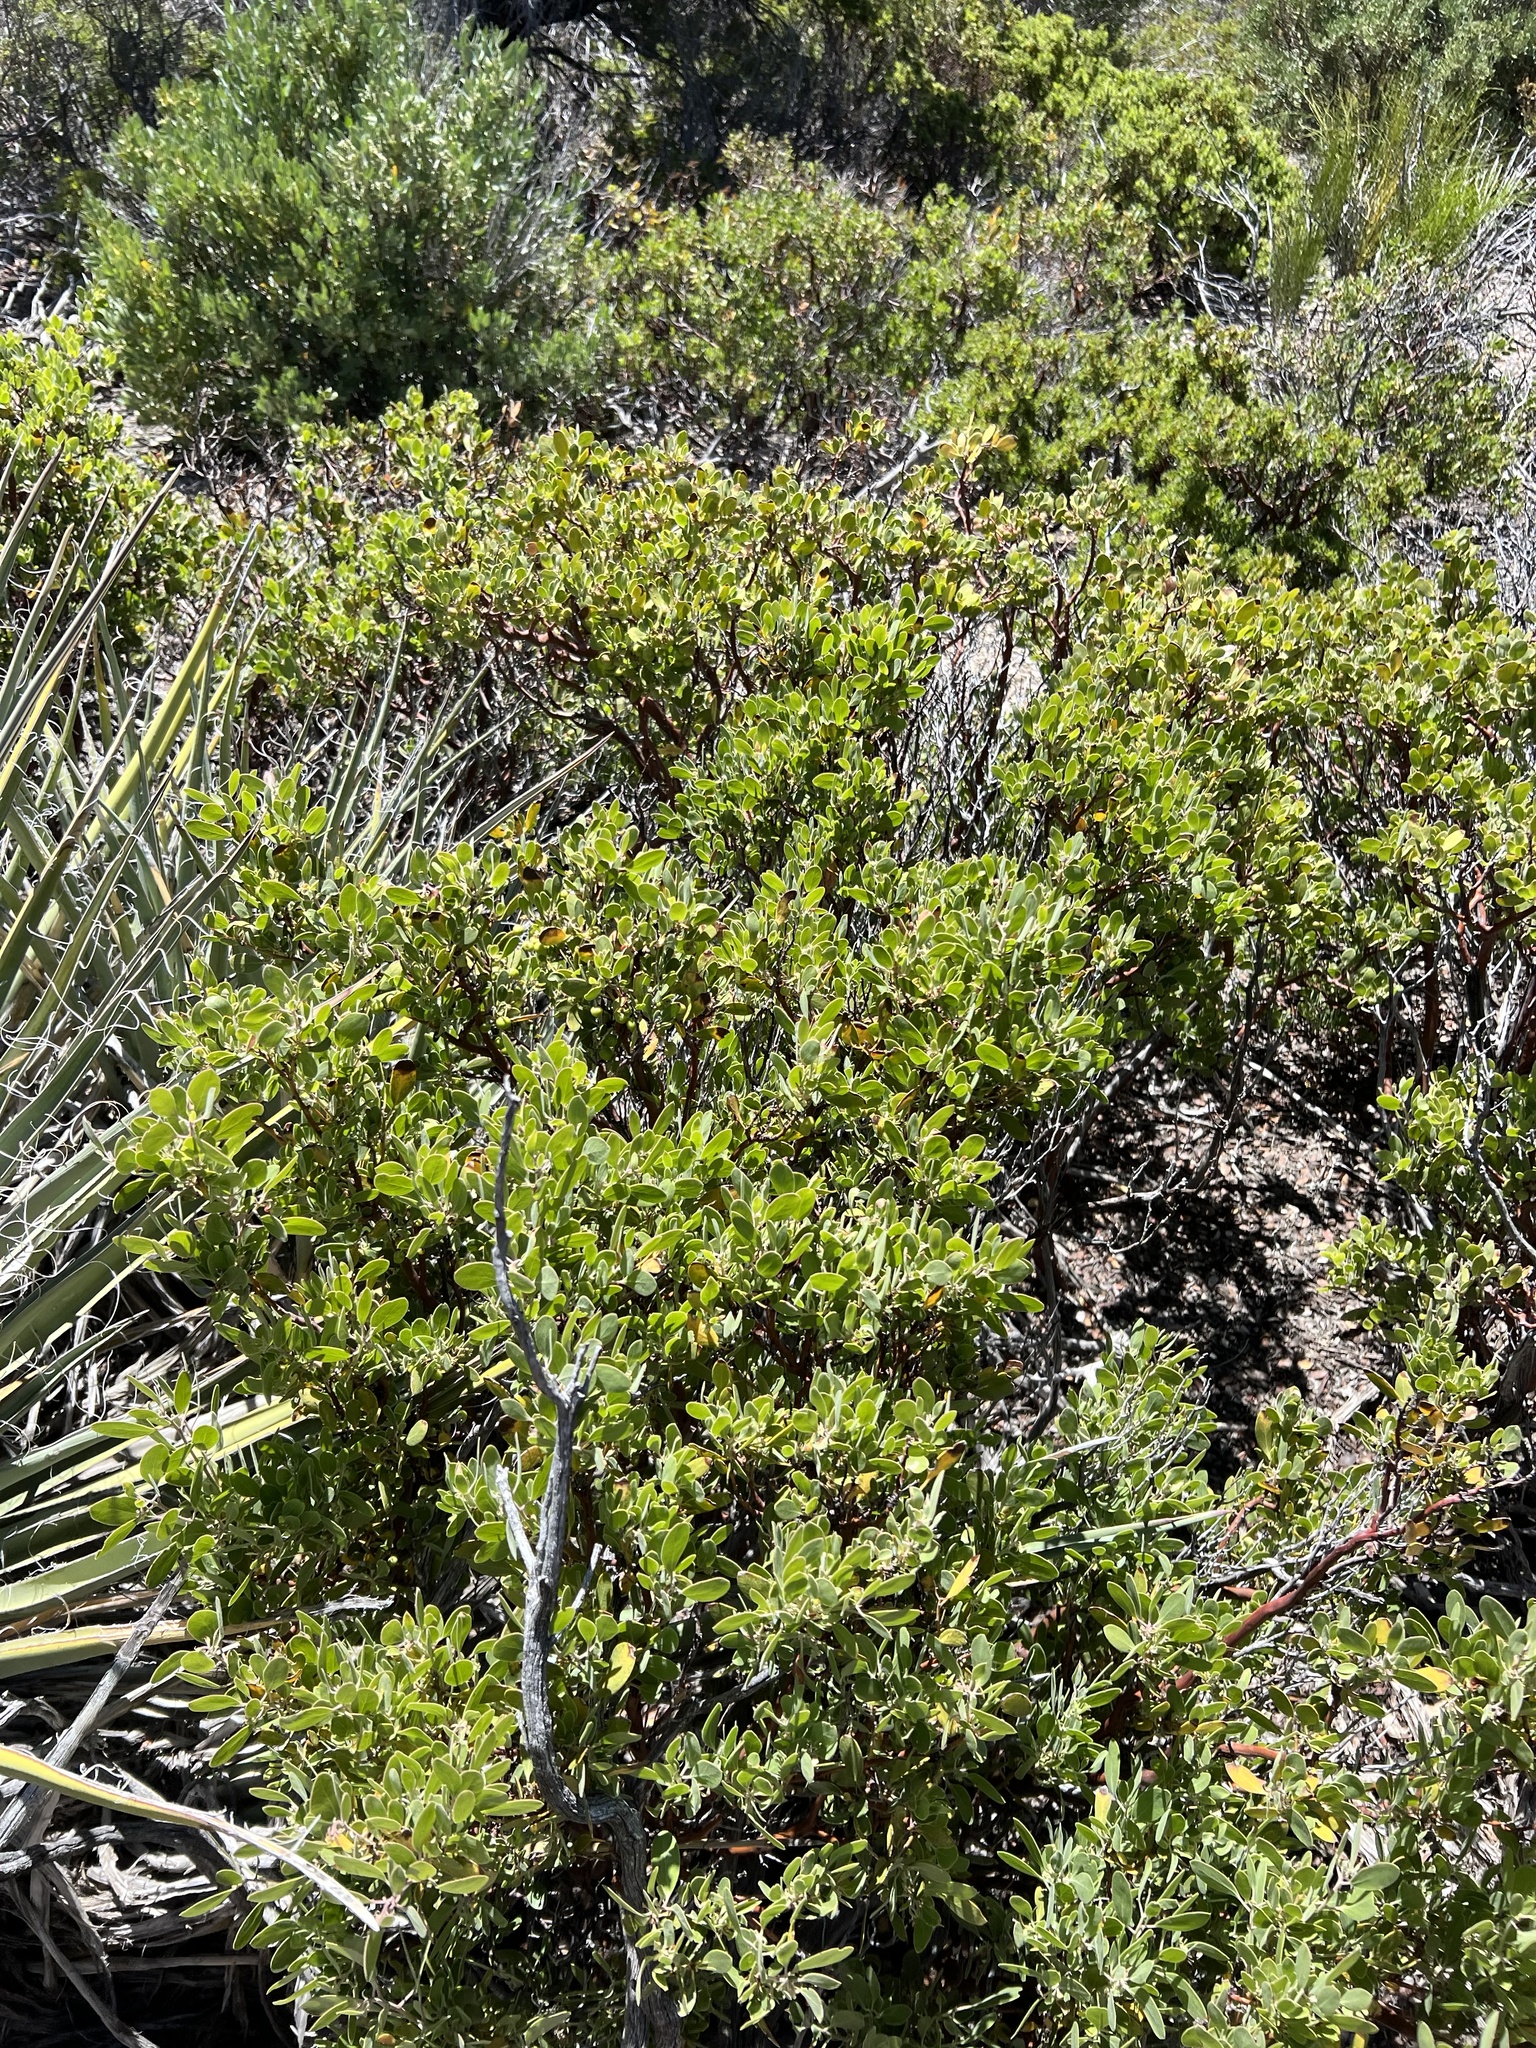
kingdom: Plantae
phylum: Tracheophyta
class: Magnoliopsida
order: Ericales
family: Ericaceae
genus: Arctostaphylos
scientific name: Arctostaphylos pungens
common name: Mexican manzanita
